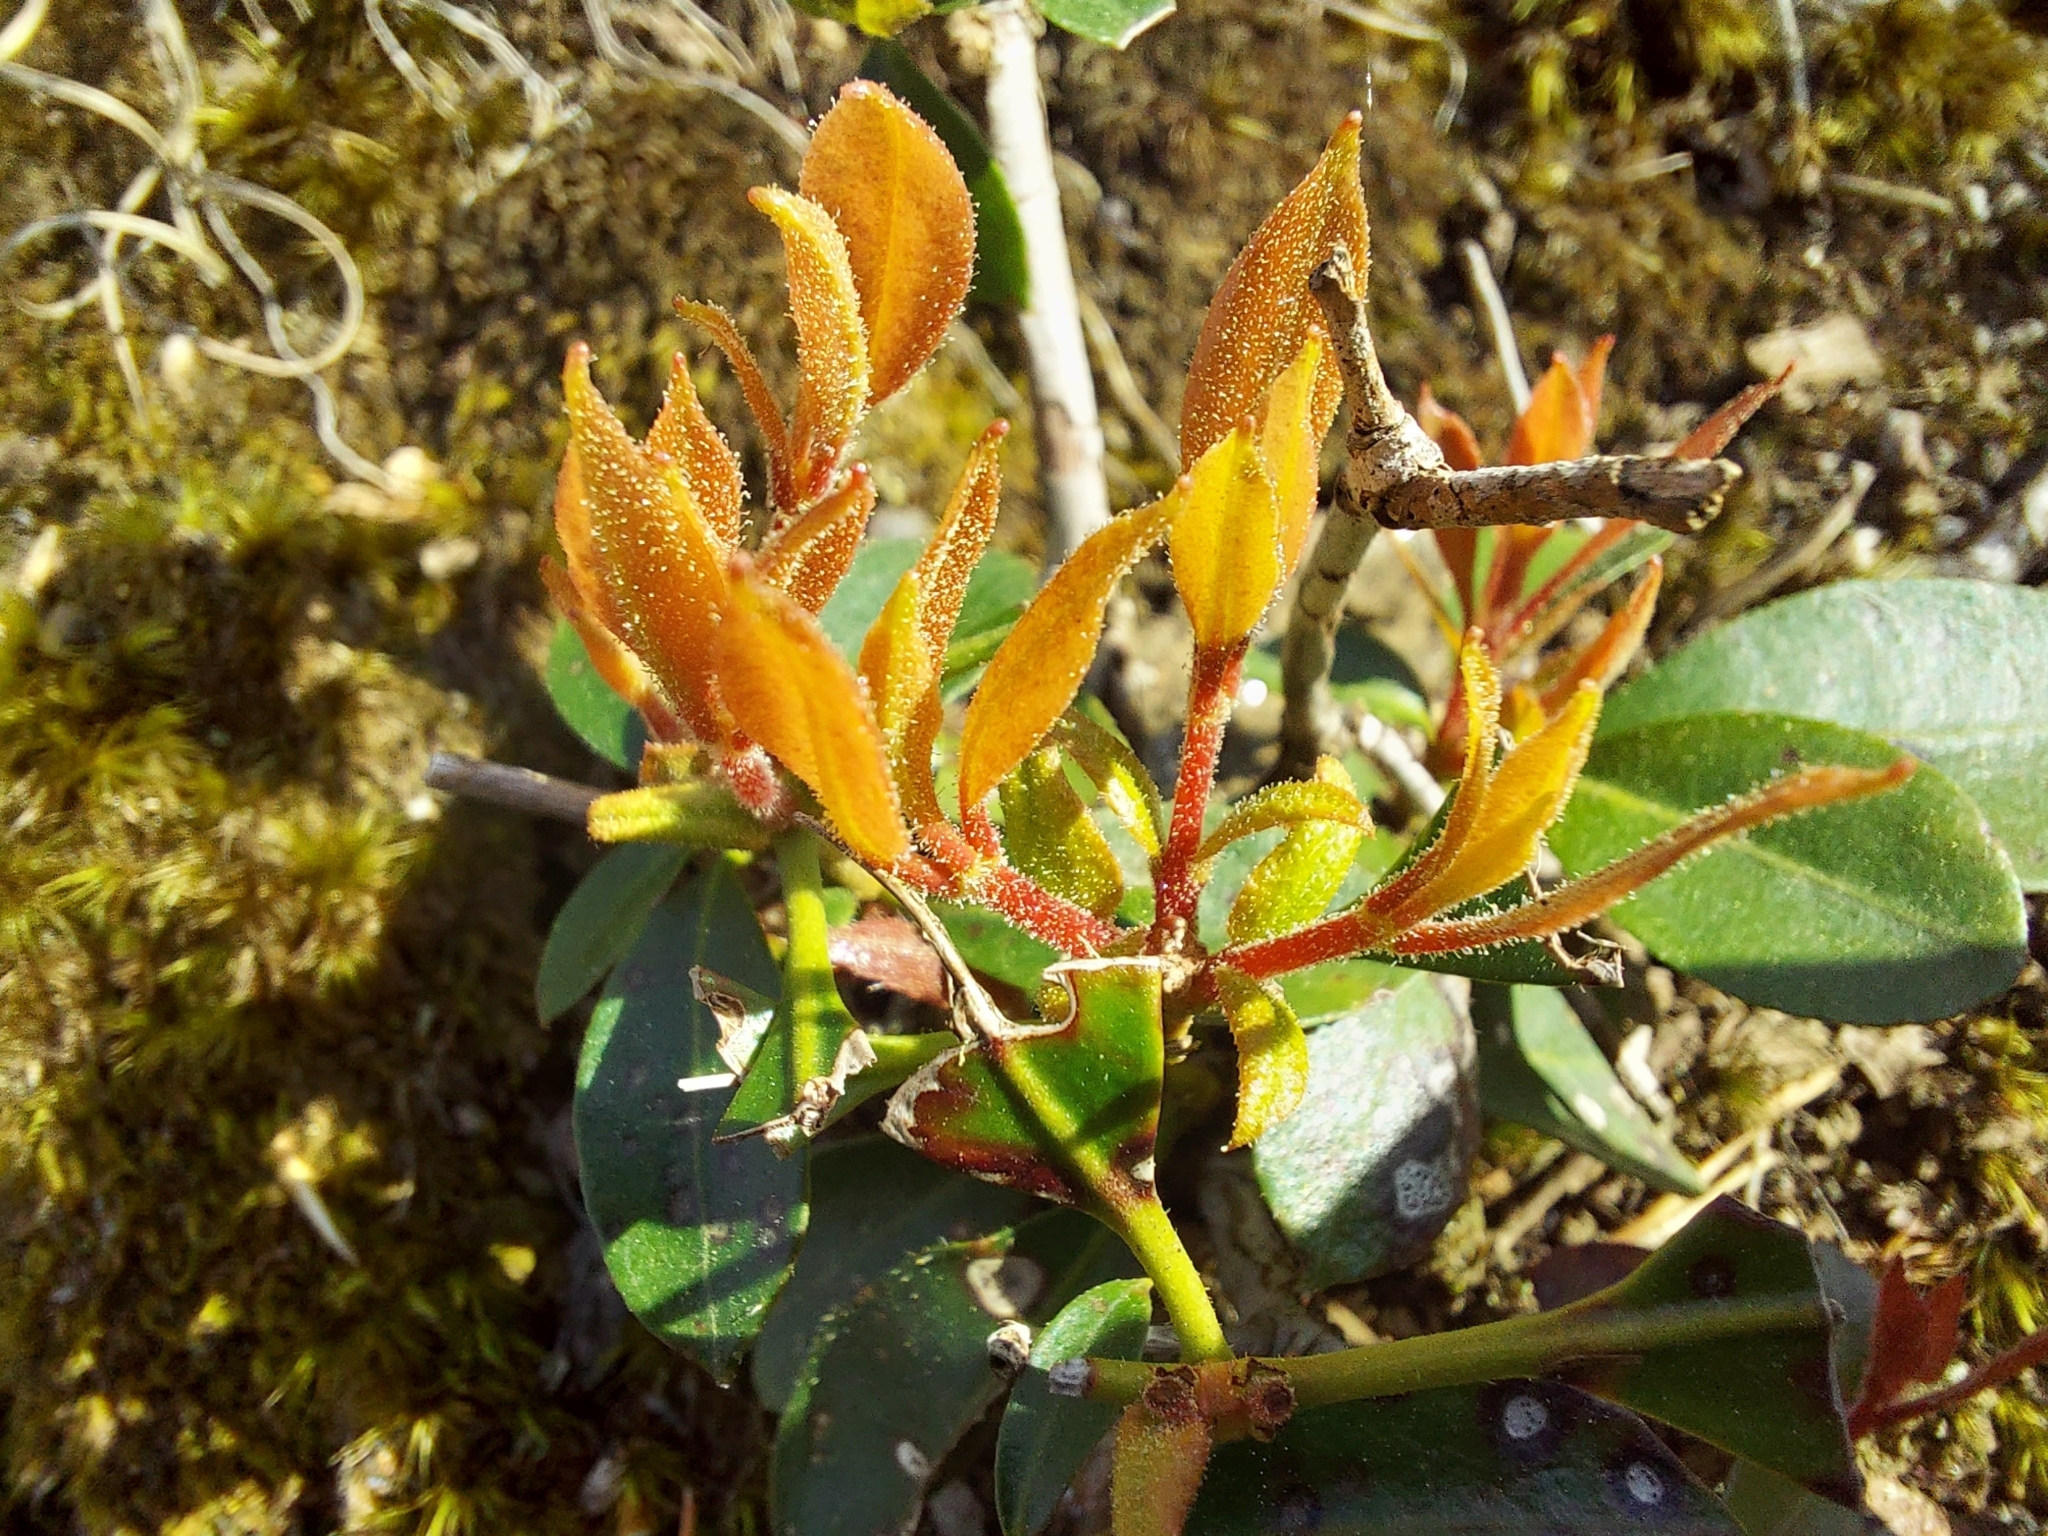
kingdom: Plantae
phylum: Tracheophyta
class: Magnoliopsida
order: Ericales
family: Ericaceae
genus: Kalmia
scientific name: Kalmia latifolia
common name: Mountain-laurel
